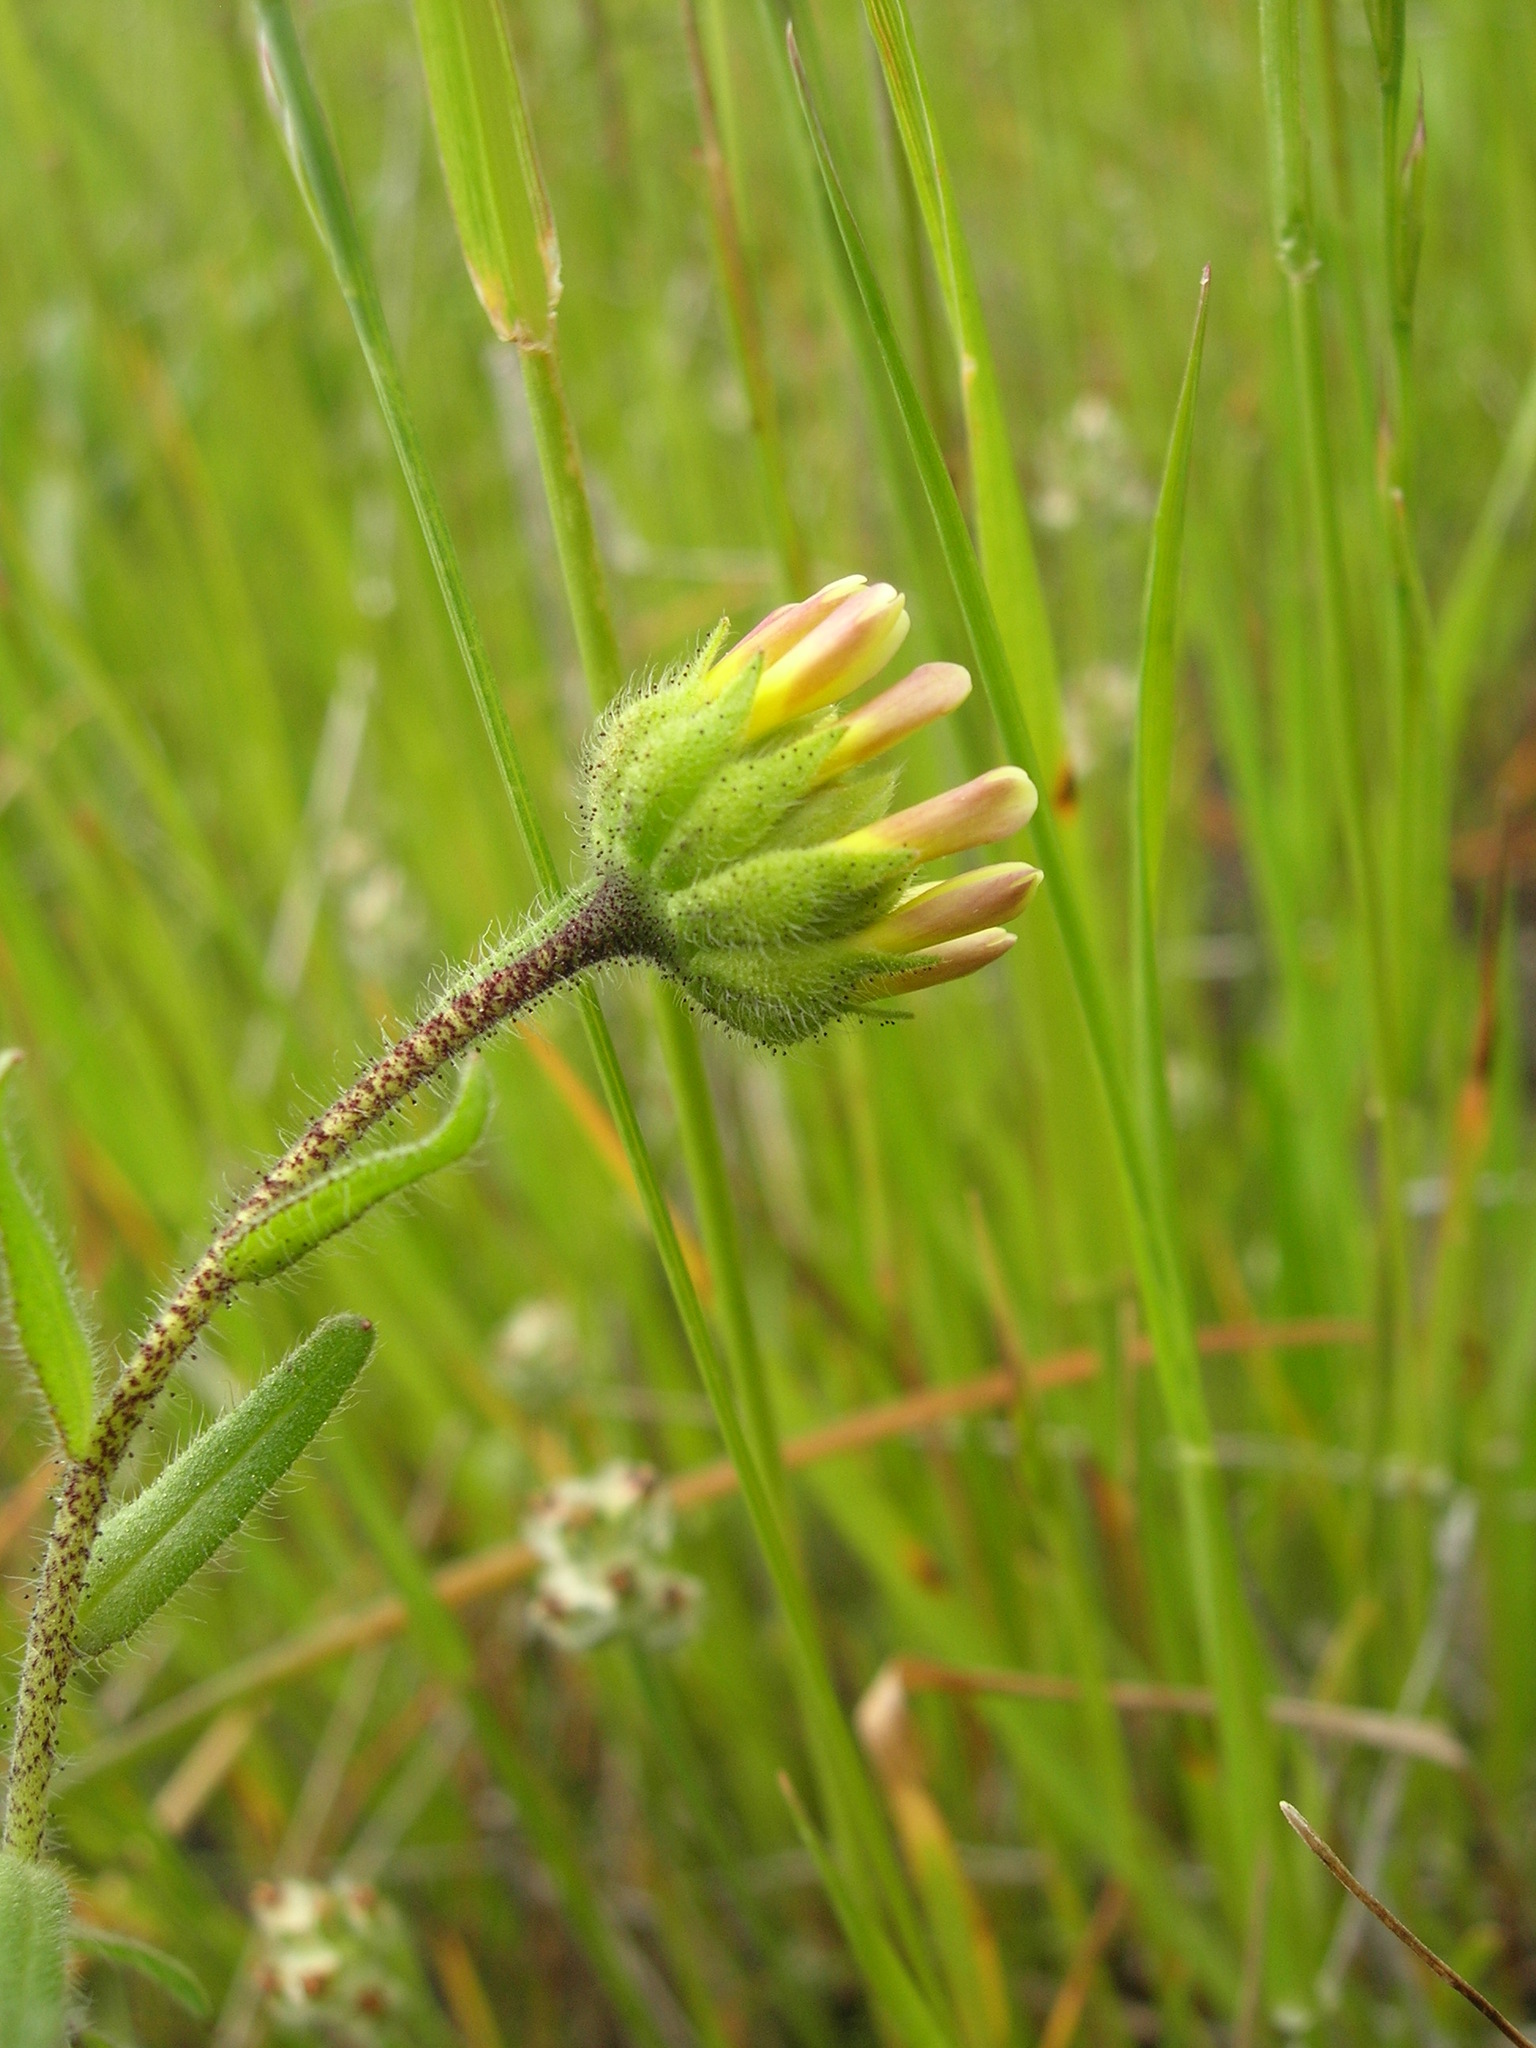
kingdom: Plantae
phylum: Tracheophyta
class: Magnoliopsida
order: Asterales
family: Asteraceae
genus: Layia
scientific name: Layia gaillardioides
